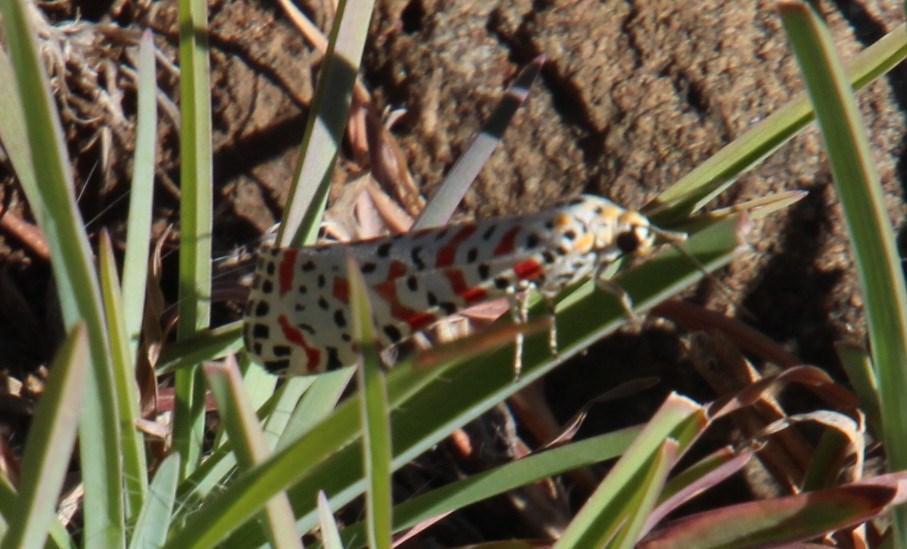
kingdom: Animalia
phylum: Arthropoda
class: Insecta
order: Lepidoptera
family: Erebidae
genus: Utetheisa
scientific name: Utetheisa pulchella
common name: Crimson speckled
